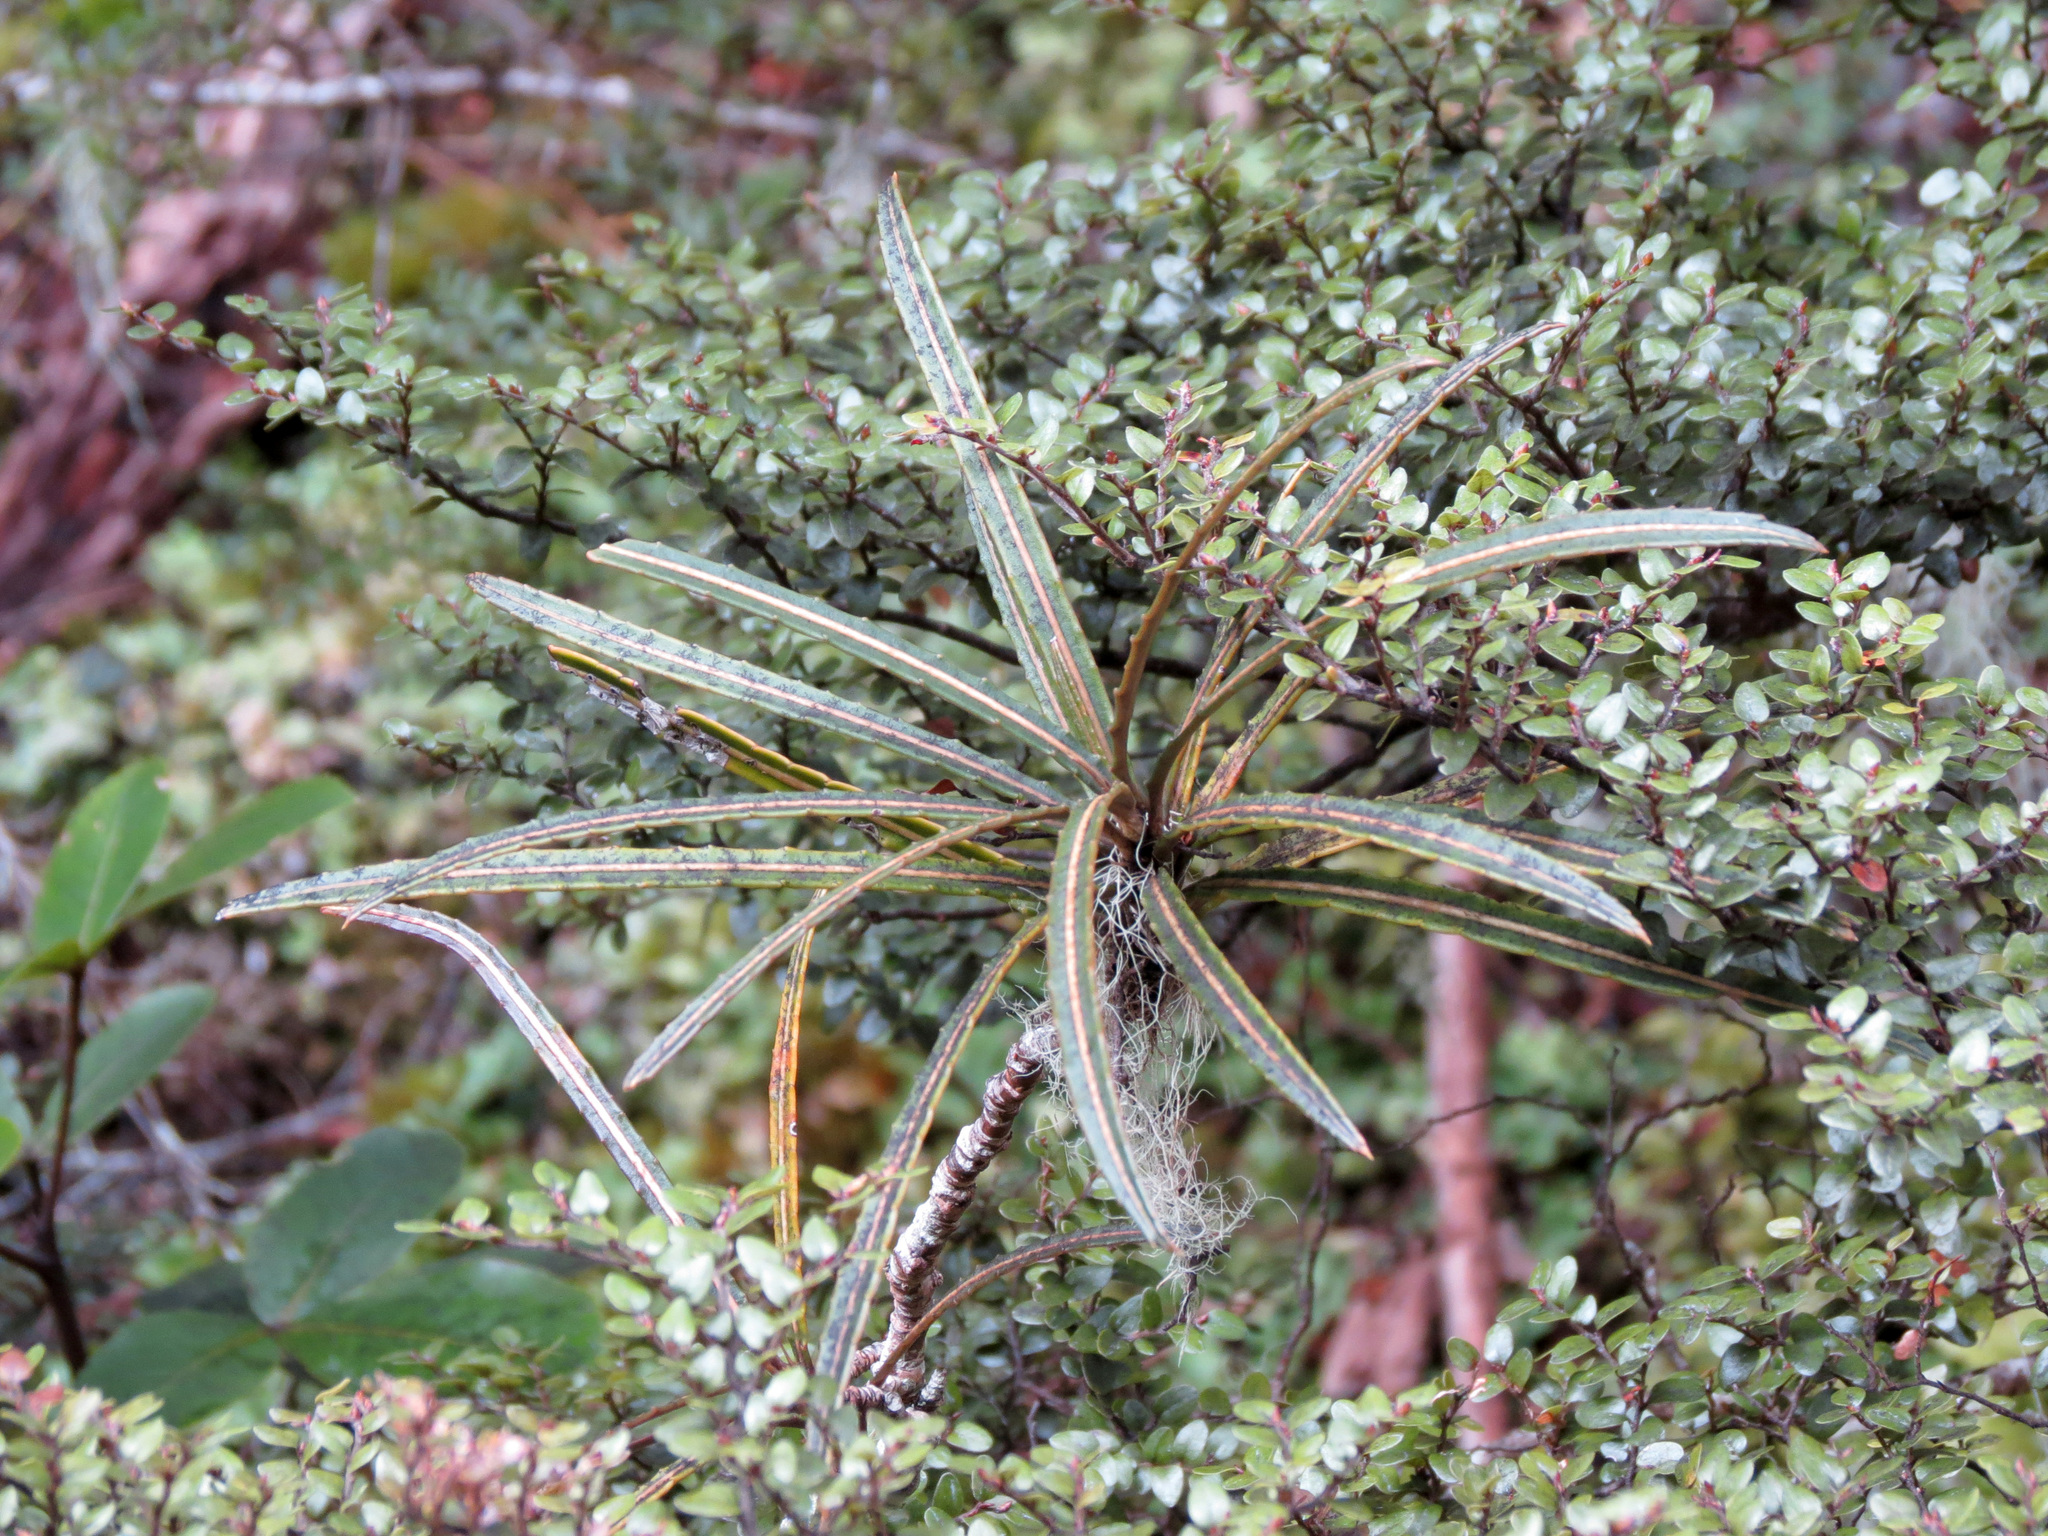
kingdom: Plantae
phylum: Tracheophyta
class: Magnoliopsida
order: Apiales
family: Araliaceae
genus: Pseudopanax
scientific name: Pseudopanax linearis
